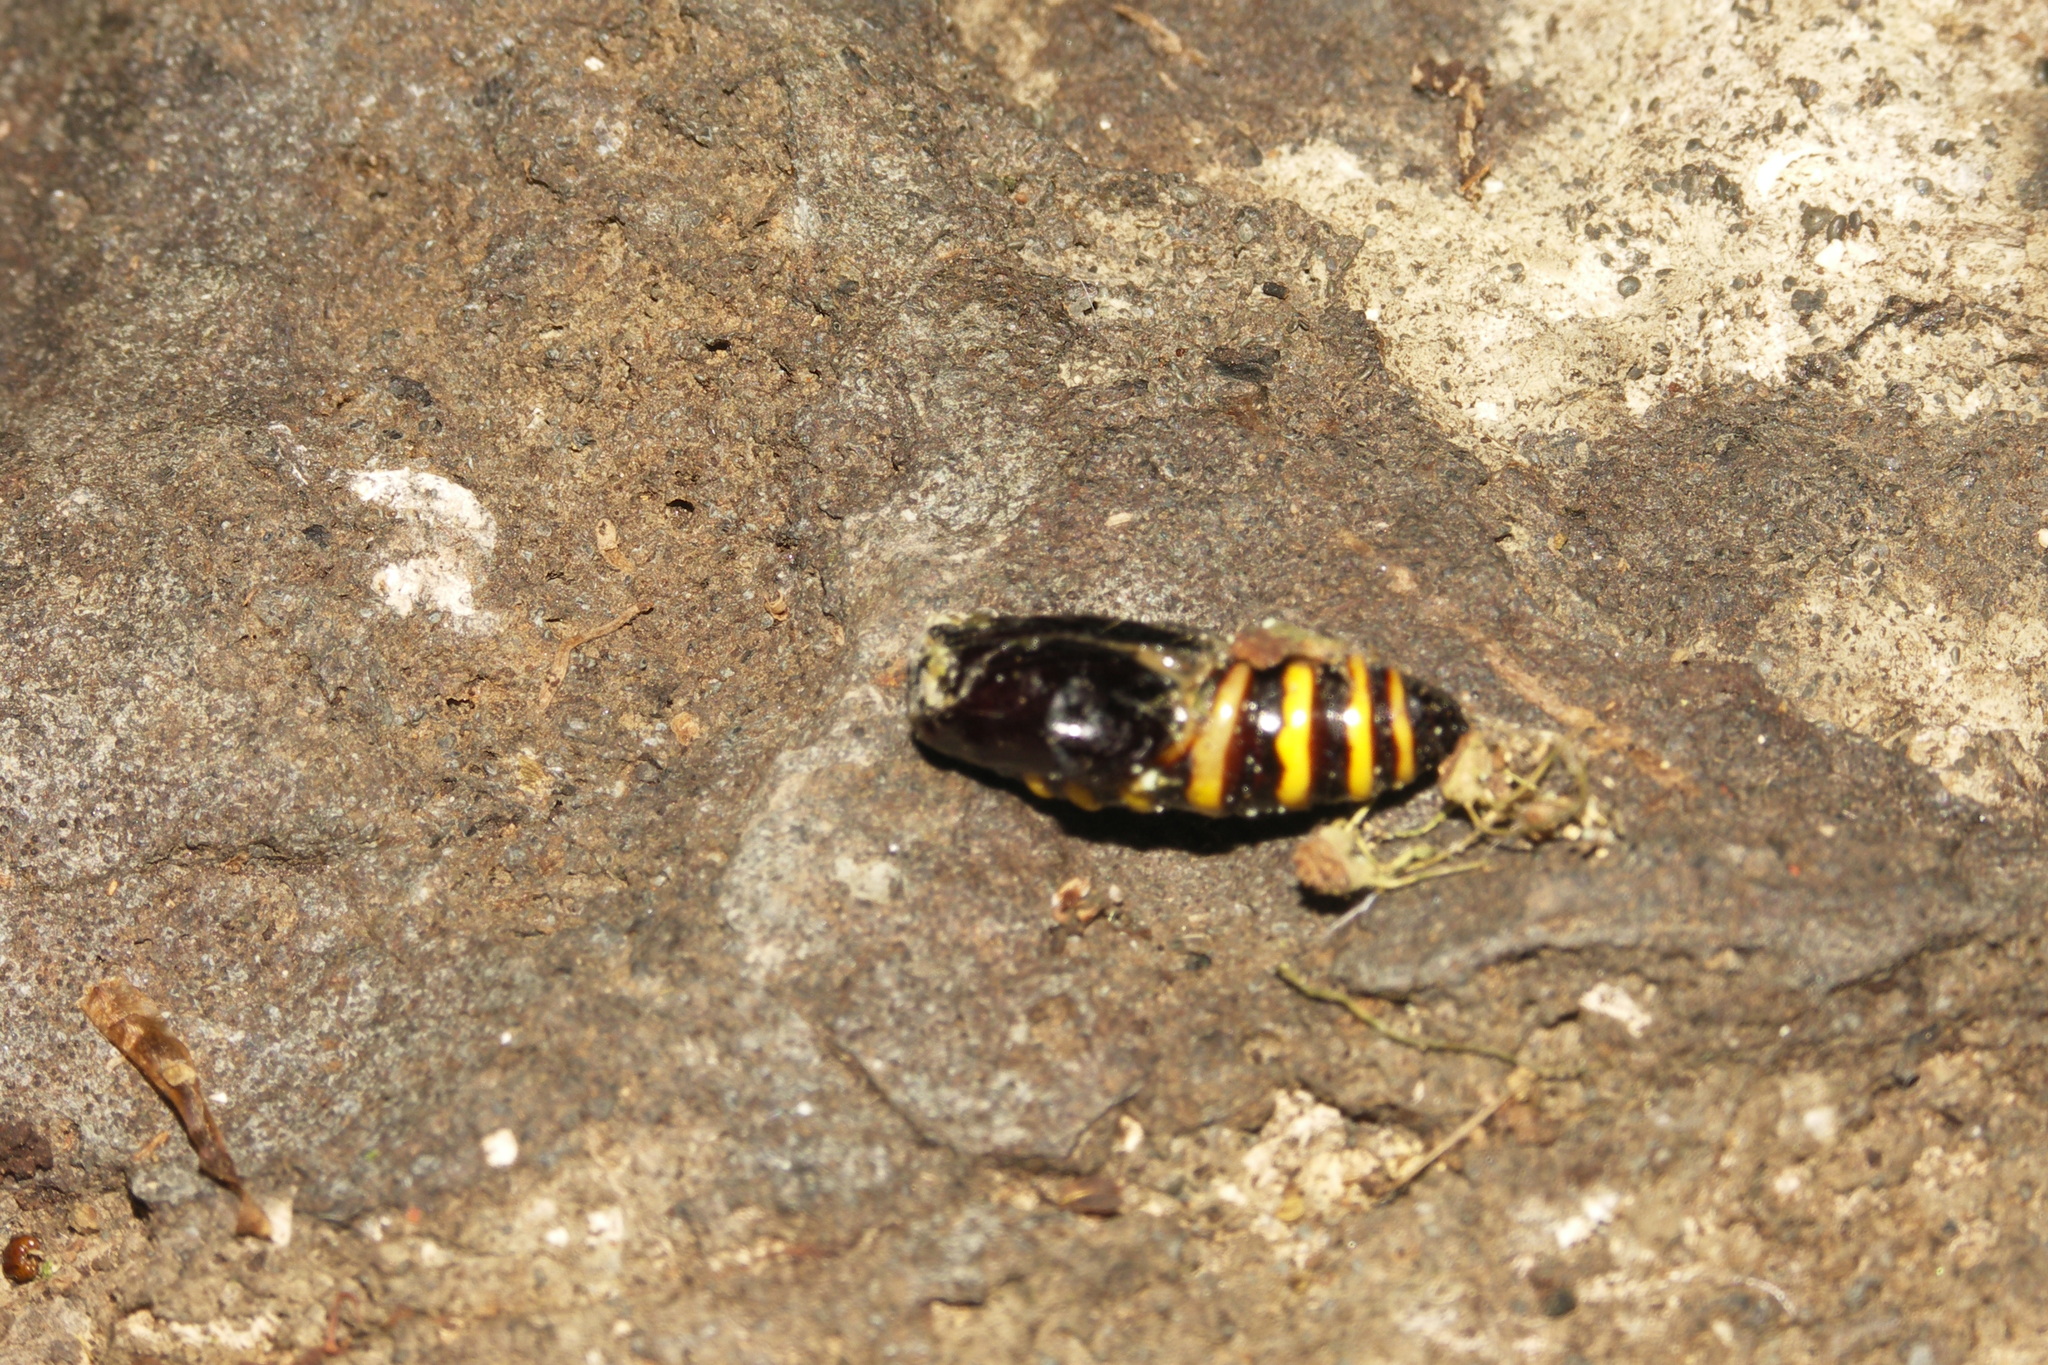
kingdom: Animalia
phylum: Arthropoda
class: Insecta
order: Lepidoptera
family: Geometridae
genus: Abraxas
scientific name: Abraxas grossulariata
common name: Magpie
